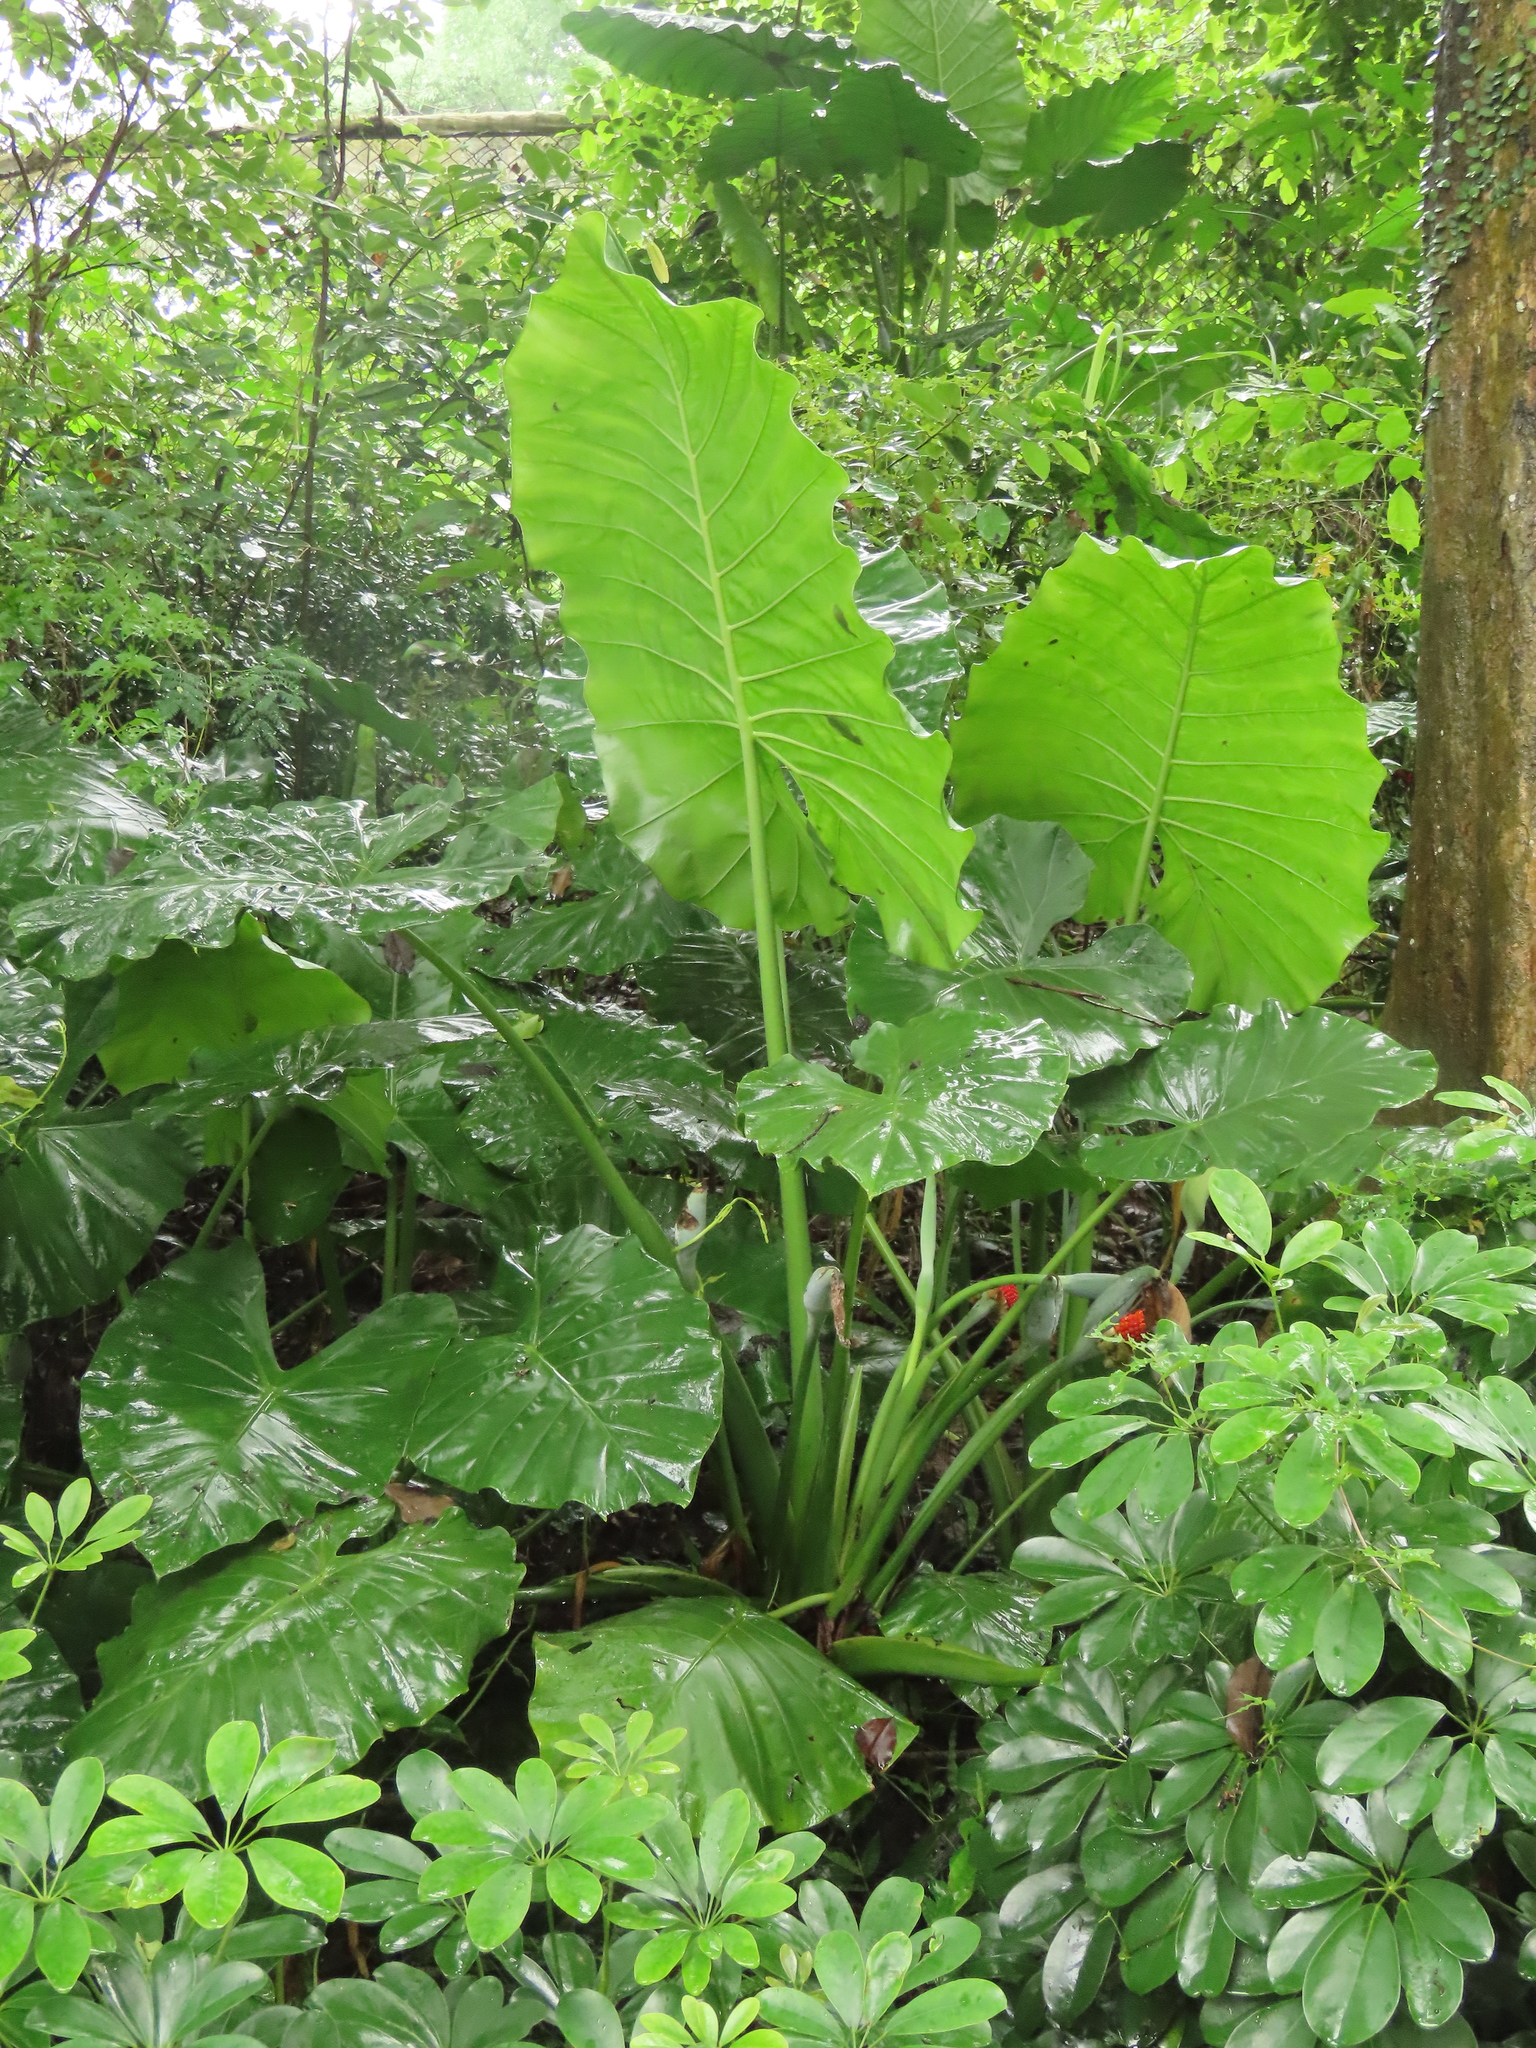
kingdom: Plantae
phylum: Tracheophyta
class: Liliopsida
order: Alismatales
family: Araceae
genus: Alocasia
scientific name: Alocasia odora
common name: Asian taro
